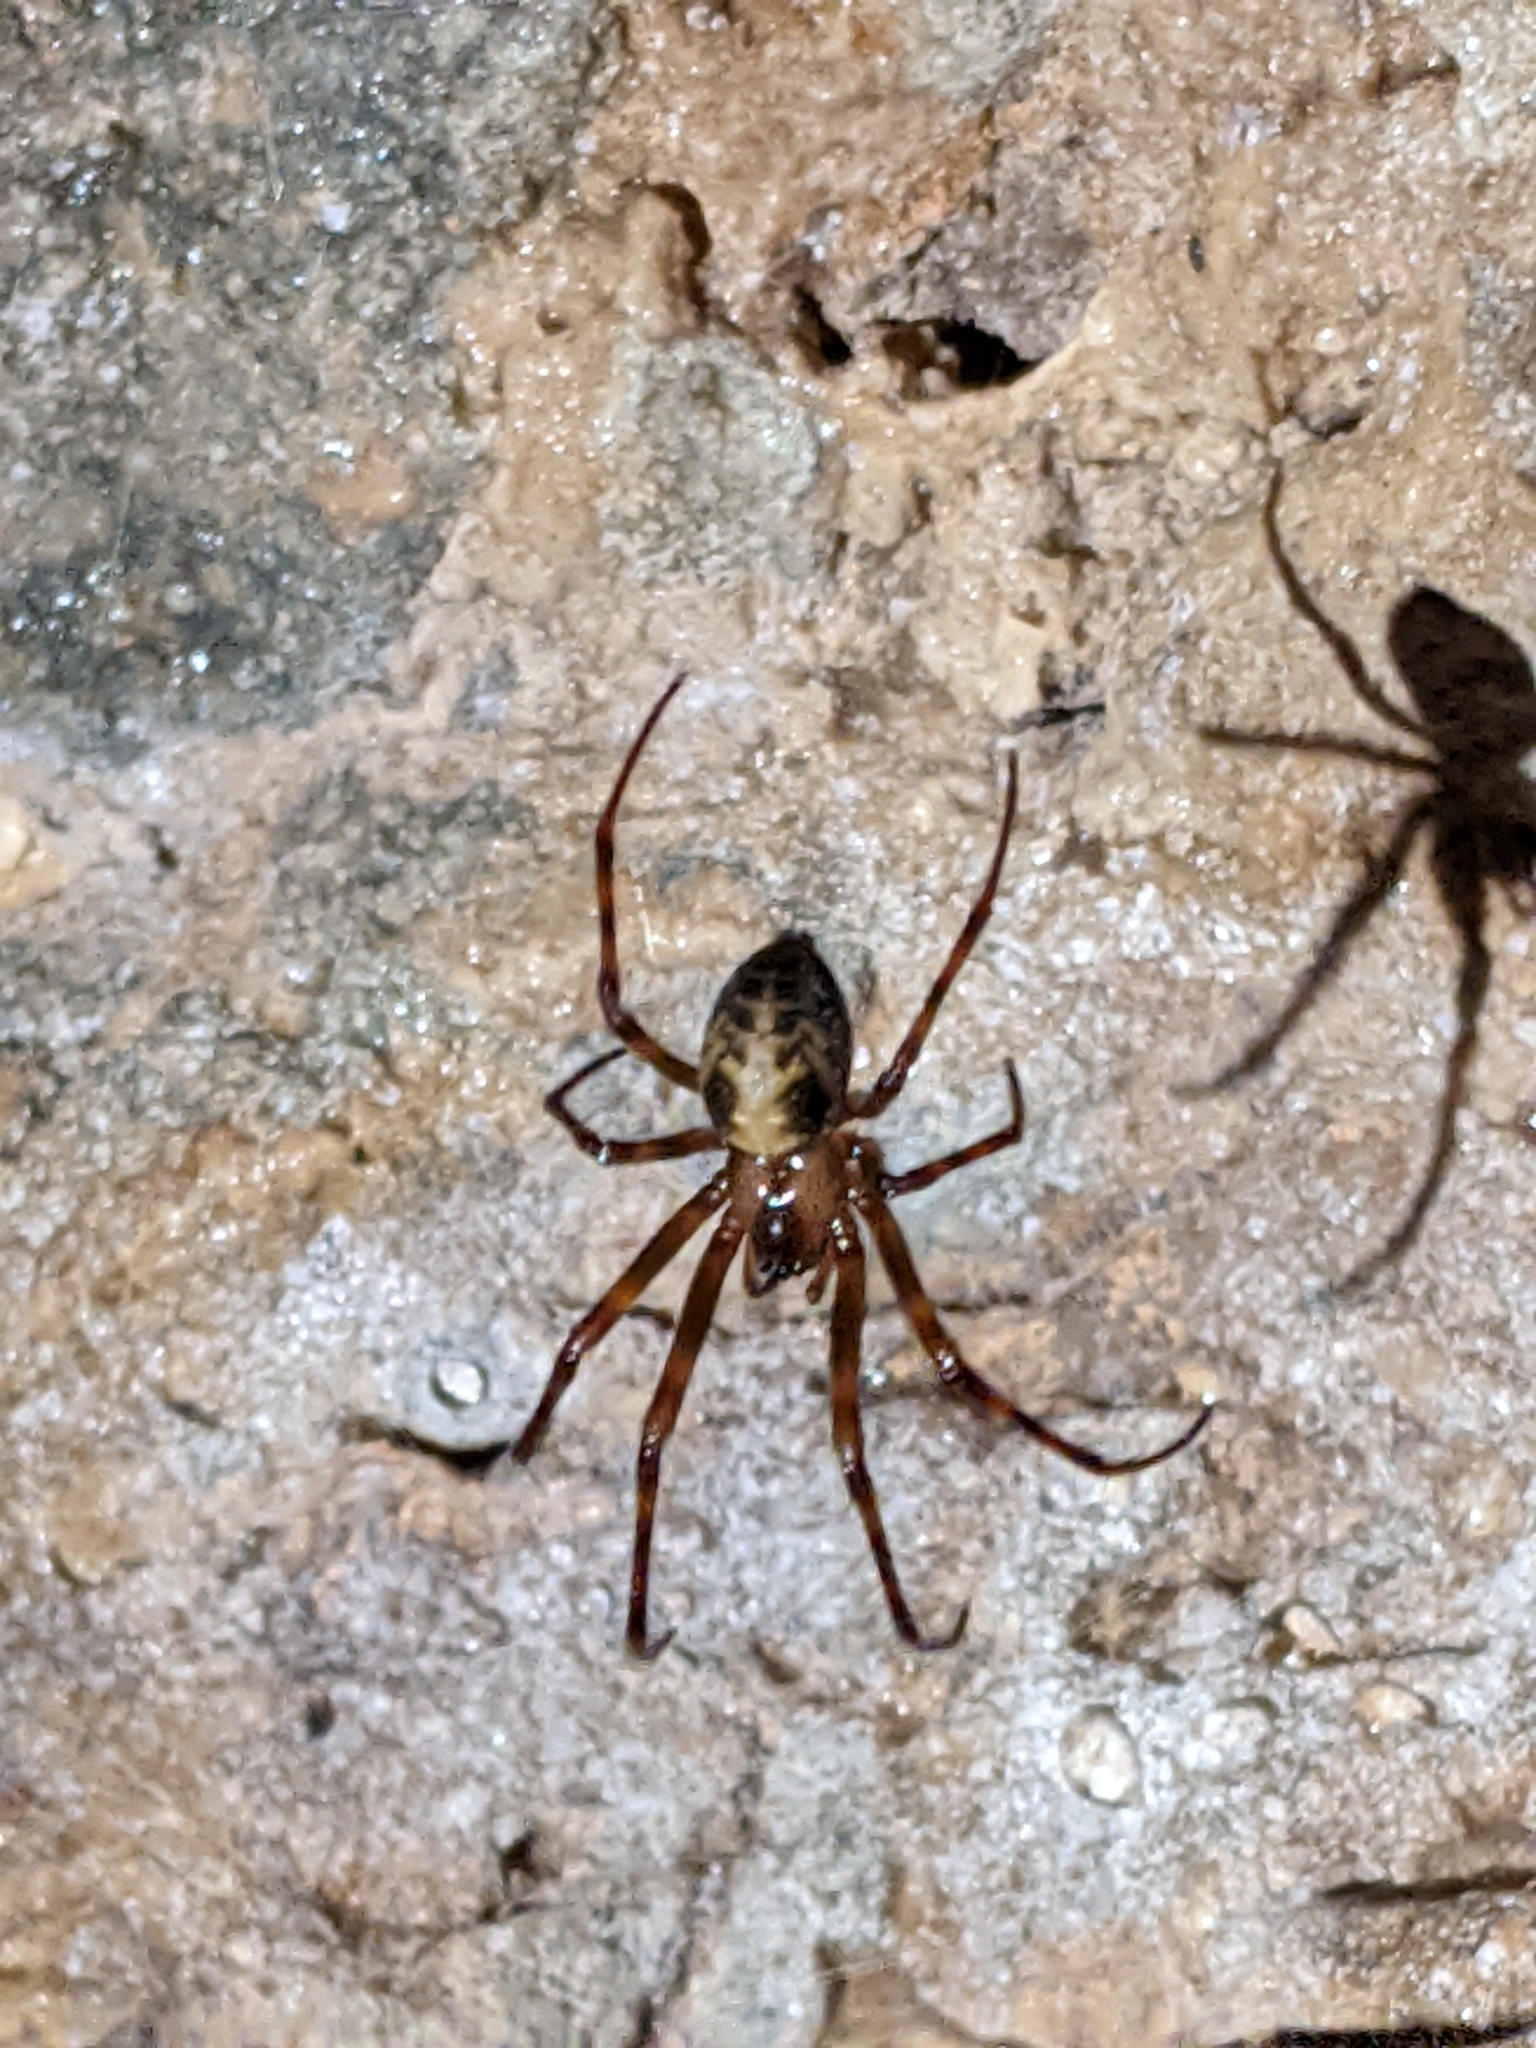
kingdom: Animalia
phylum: Arthropoda
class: Arachnida
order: Araneae
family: Tetragnathidae
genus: Meta
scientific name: Meta ovalis
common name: Eastern cave long-jawed spider
